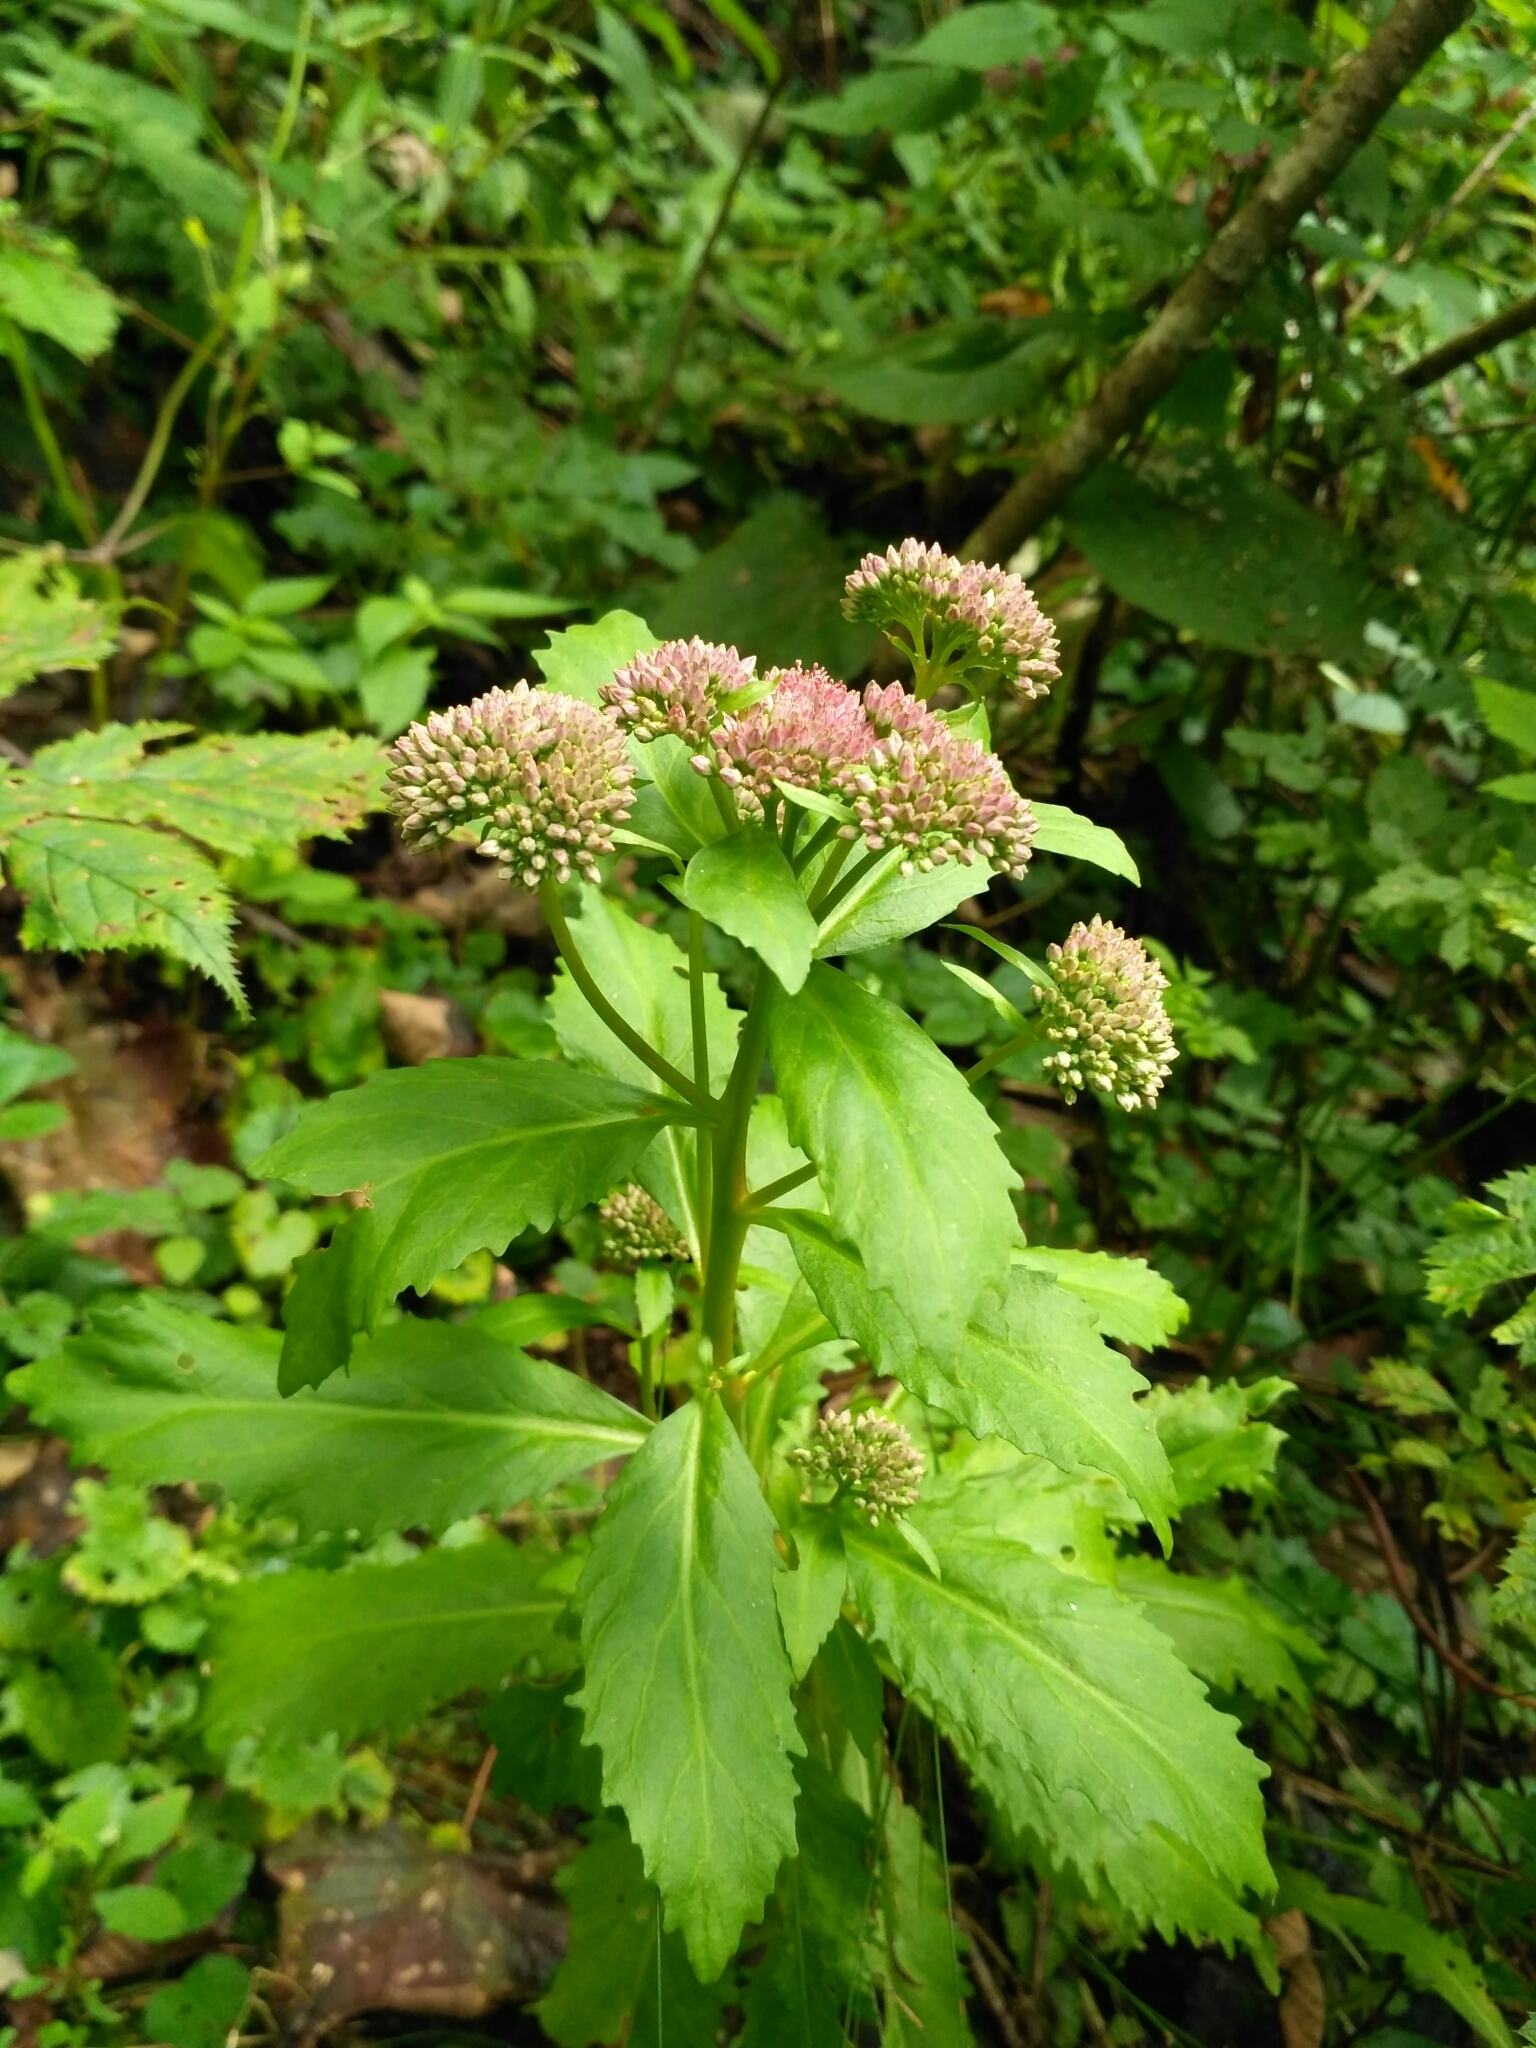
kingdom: Plantae
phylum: Tracheophyta
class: Magnoliopsida
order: Saxifragales
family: Crassulaceae
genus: Hylotelephium
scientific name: Hylotelephium vulgare
